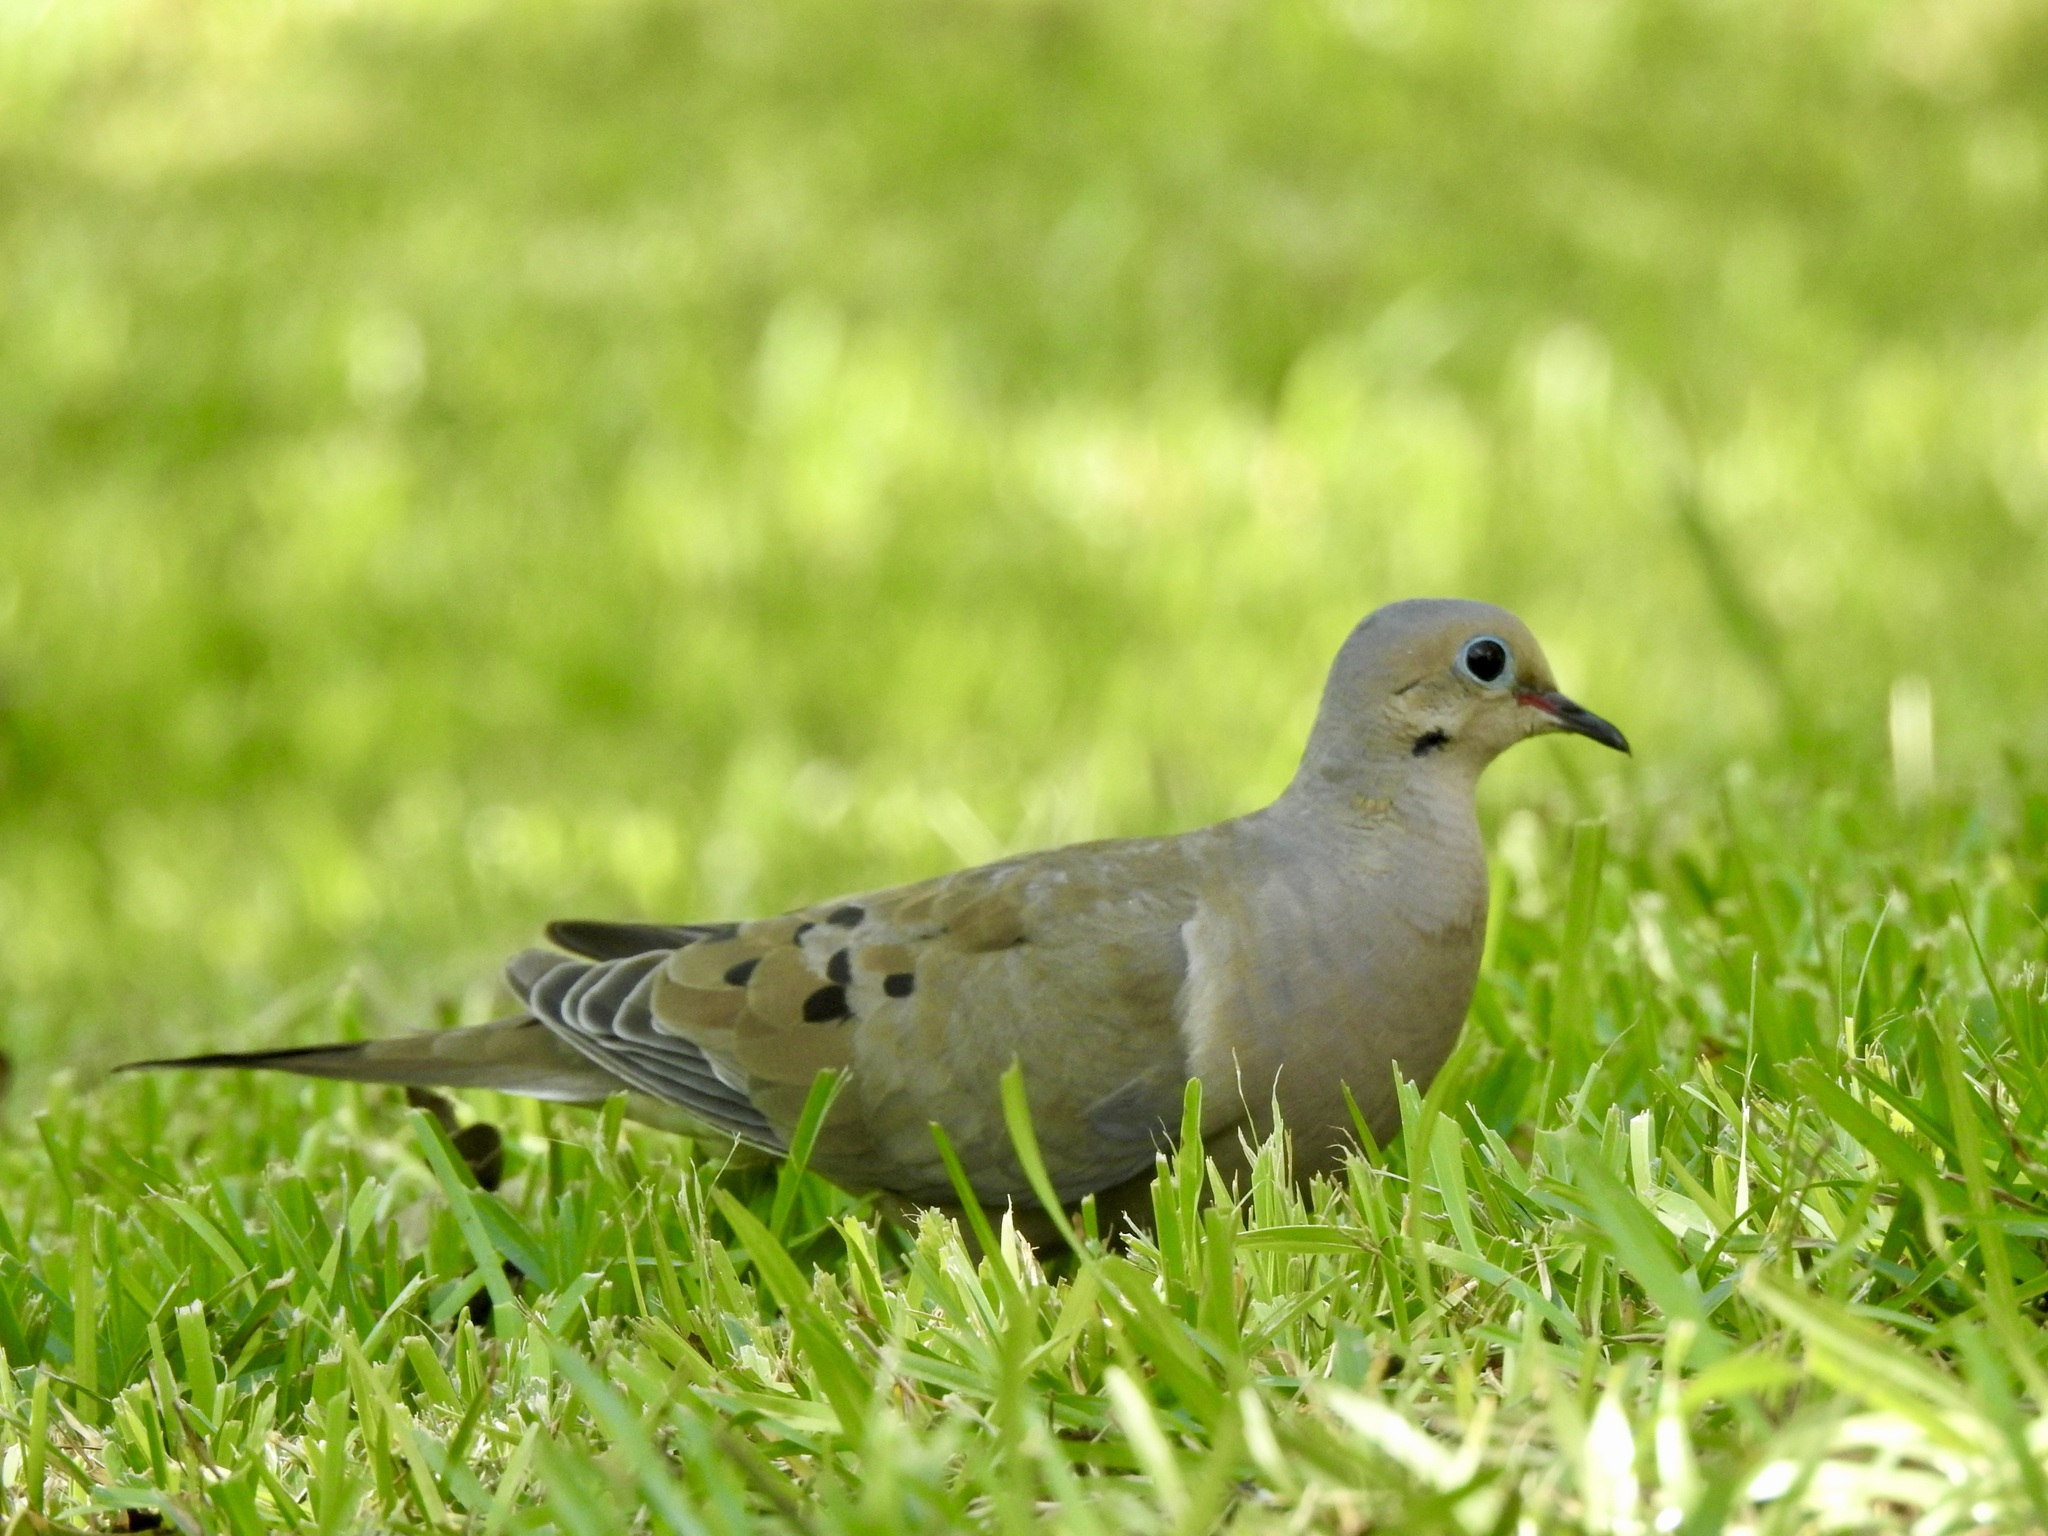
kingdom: Animalia
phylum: Chordata
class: Aves
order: Columbiformes
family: Columbidae
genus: Zenaida
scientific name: Zenaida macroura
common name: Mourning dove
